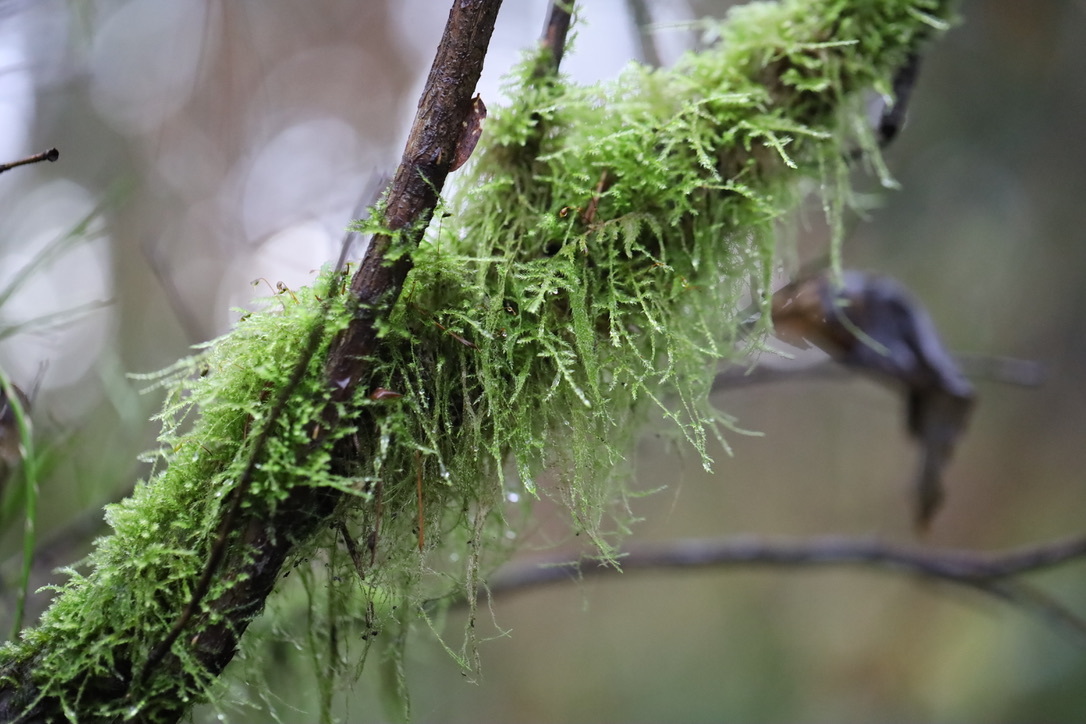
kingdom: Plantae
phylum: Bryophyta
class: Bryopsida
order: Hypnales
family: Lembophyllaceae
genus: Pseudisothecium
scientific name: Pseudisothecium stoloniferum
